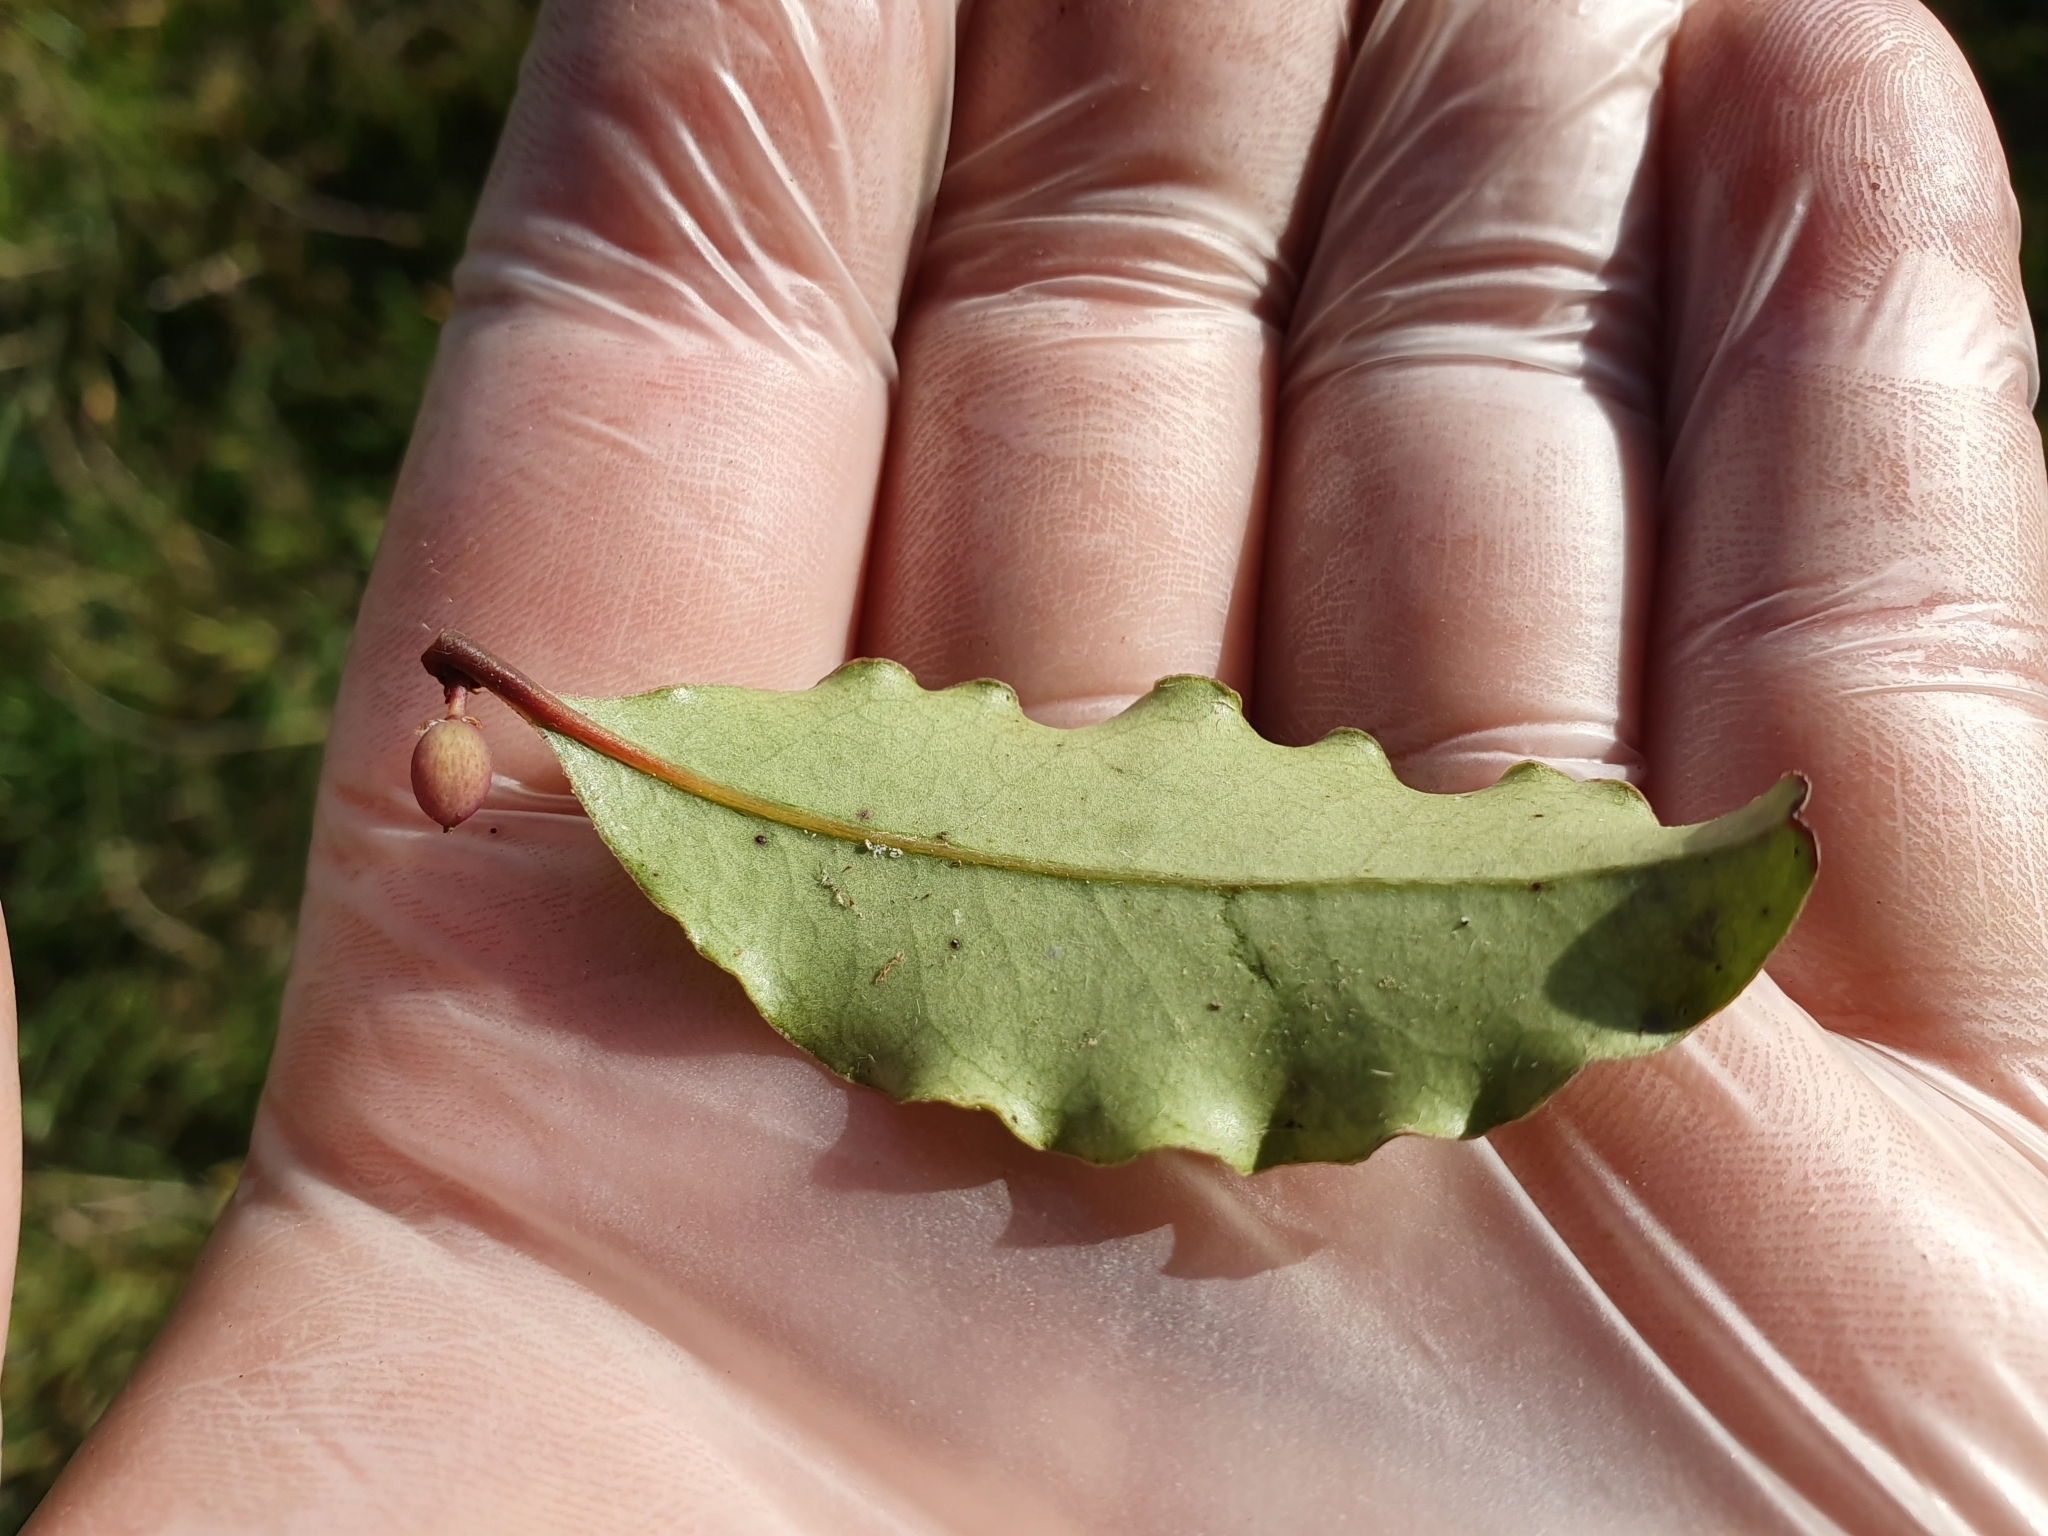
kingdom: Plantae
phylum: Tracheophyta
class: Magnoliopsida
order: Ericales
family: Primulaceae
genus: Myrsine
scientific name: Myrsine australis
